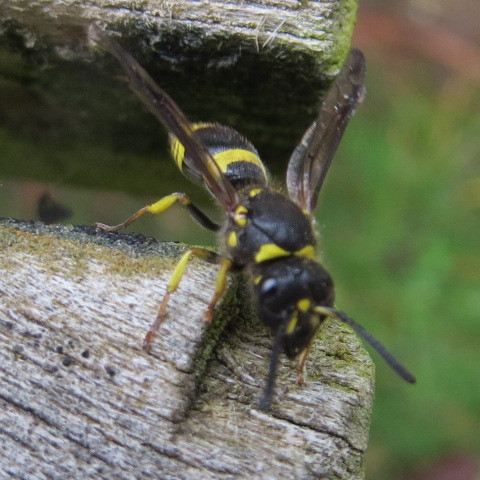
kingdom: Animalia
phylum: Arthropoda
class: Insecta
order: Hymenoptera
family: Vespidae
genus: Ancistrocerus
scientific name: Ancistrocerus gazella
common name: European tube wasp
